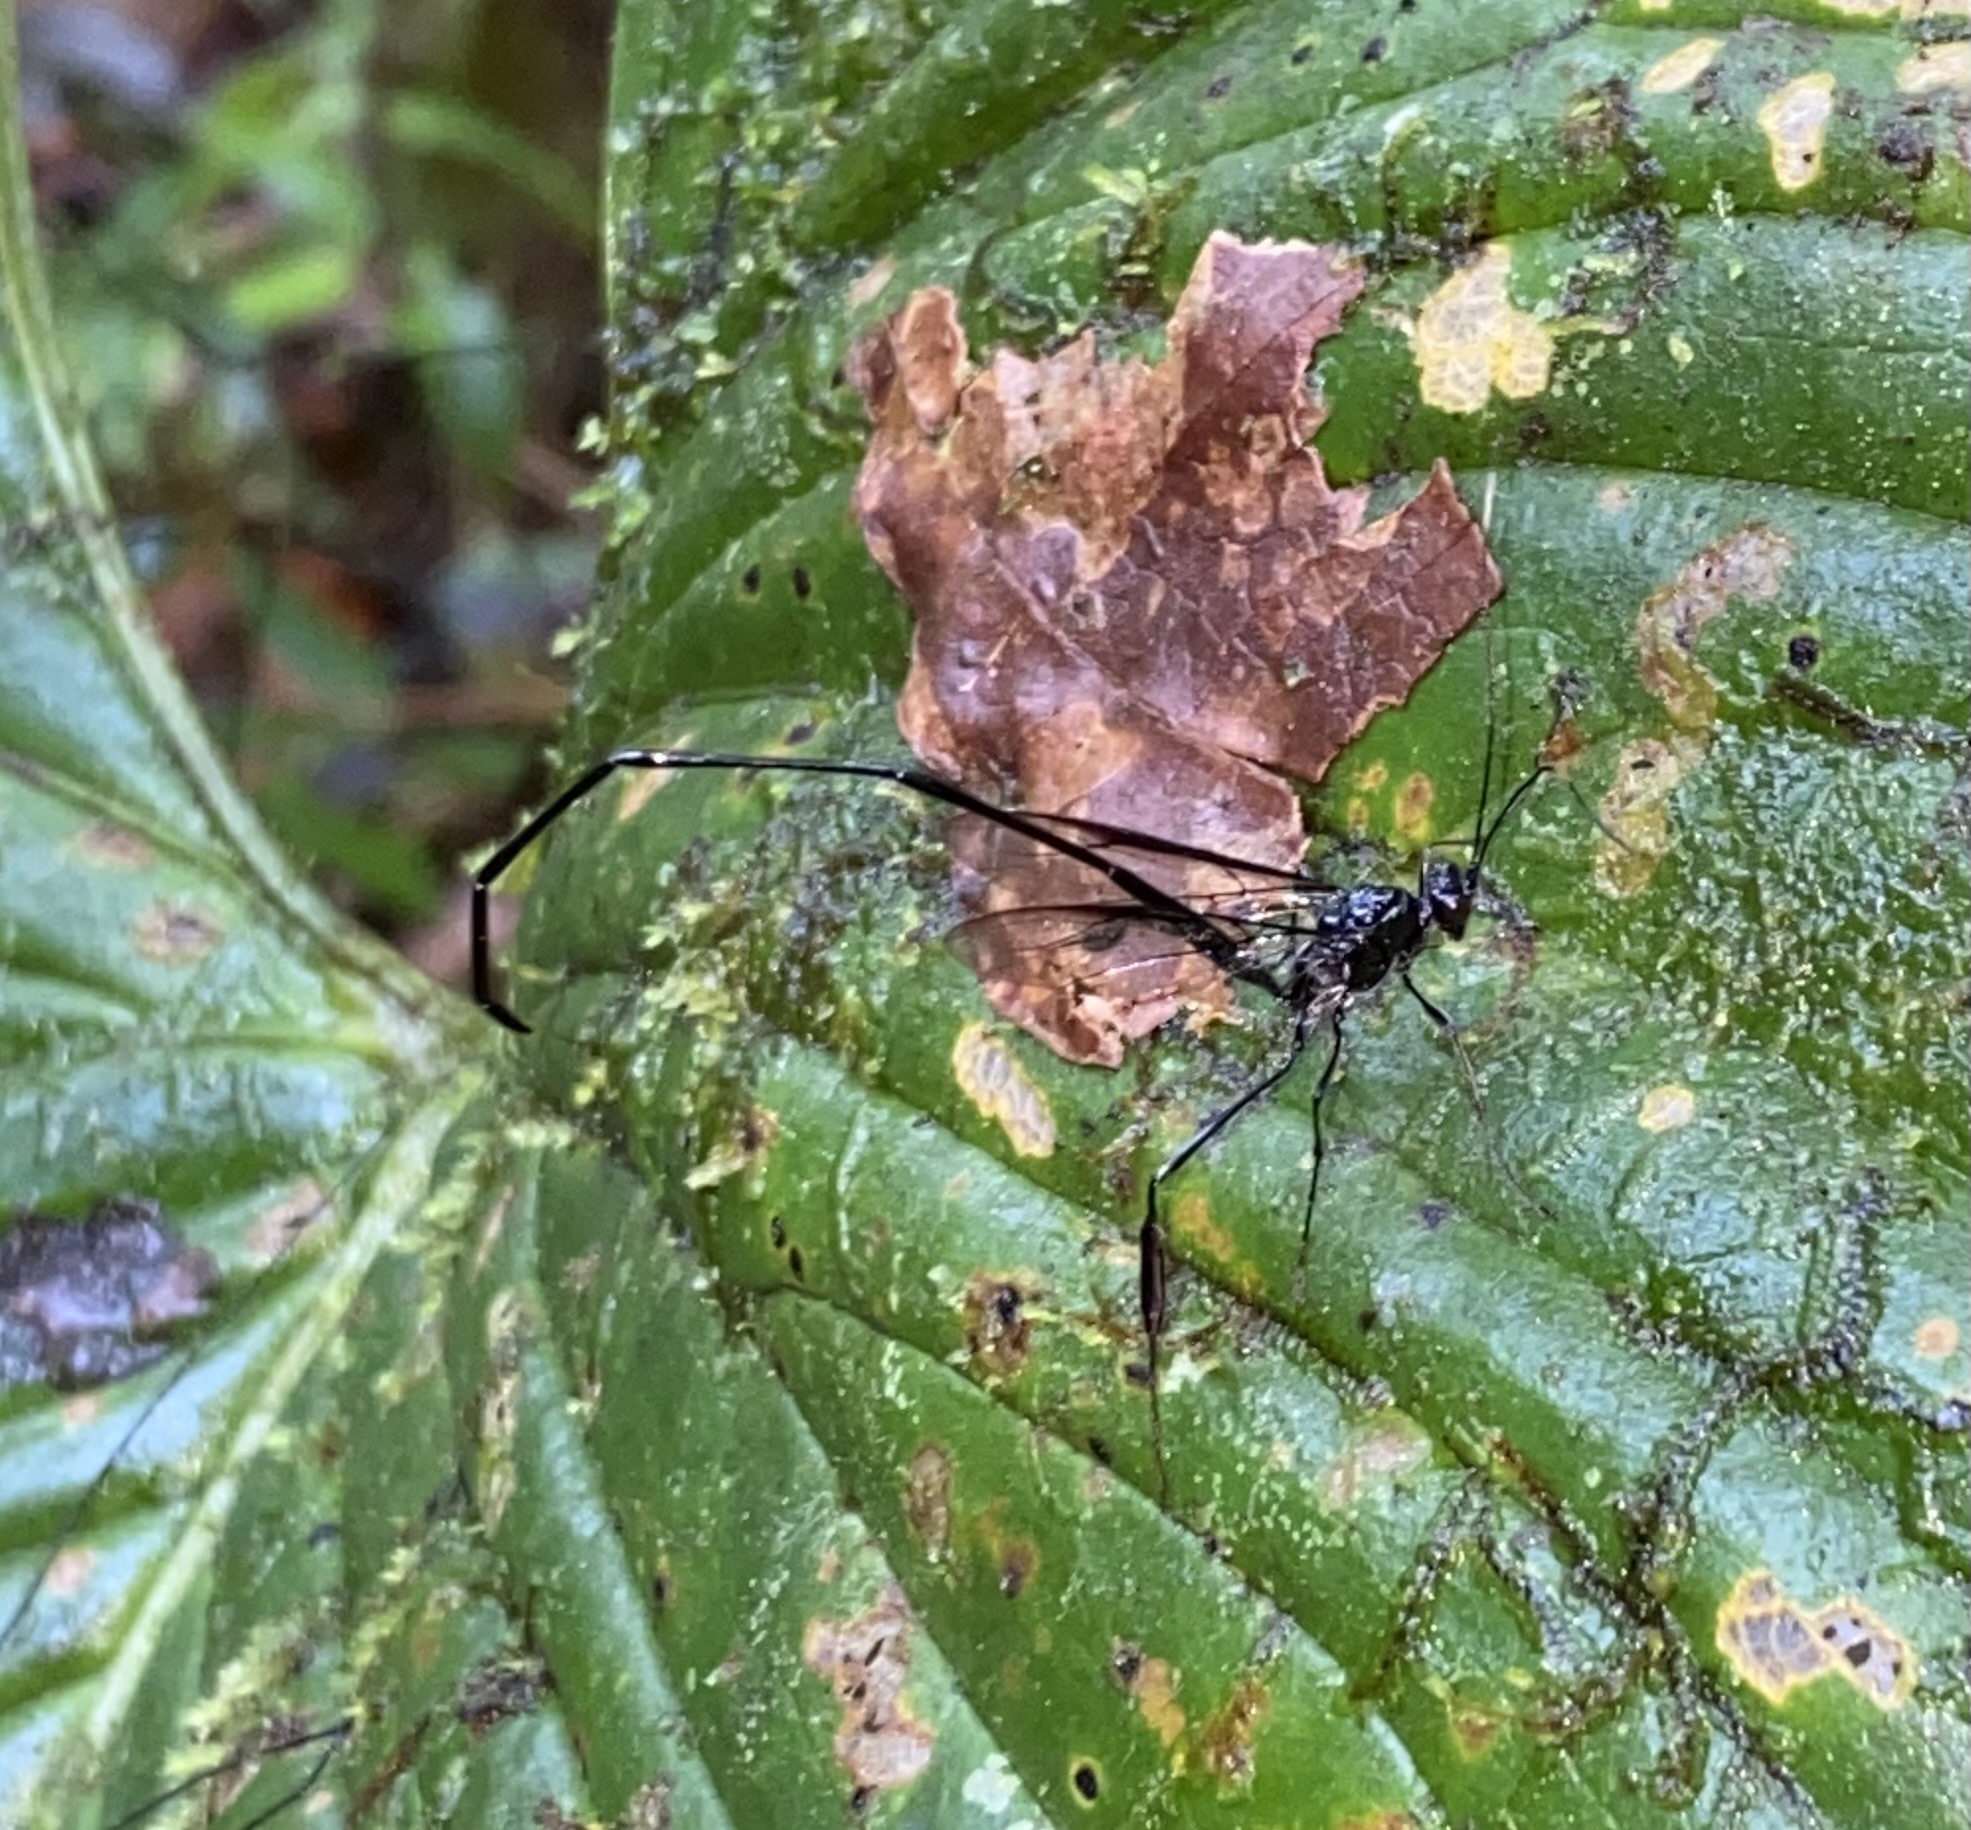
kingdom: Animalia
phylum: Arthropoda
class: Insecta
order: Hymenoptera
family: Pelecinidae
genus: Pelecinus
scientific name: Pelecinus polyturator
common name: American pelecinid wasp
